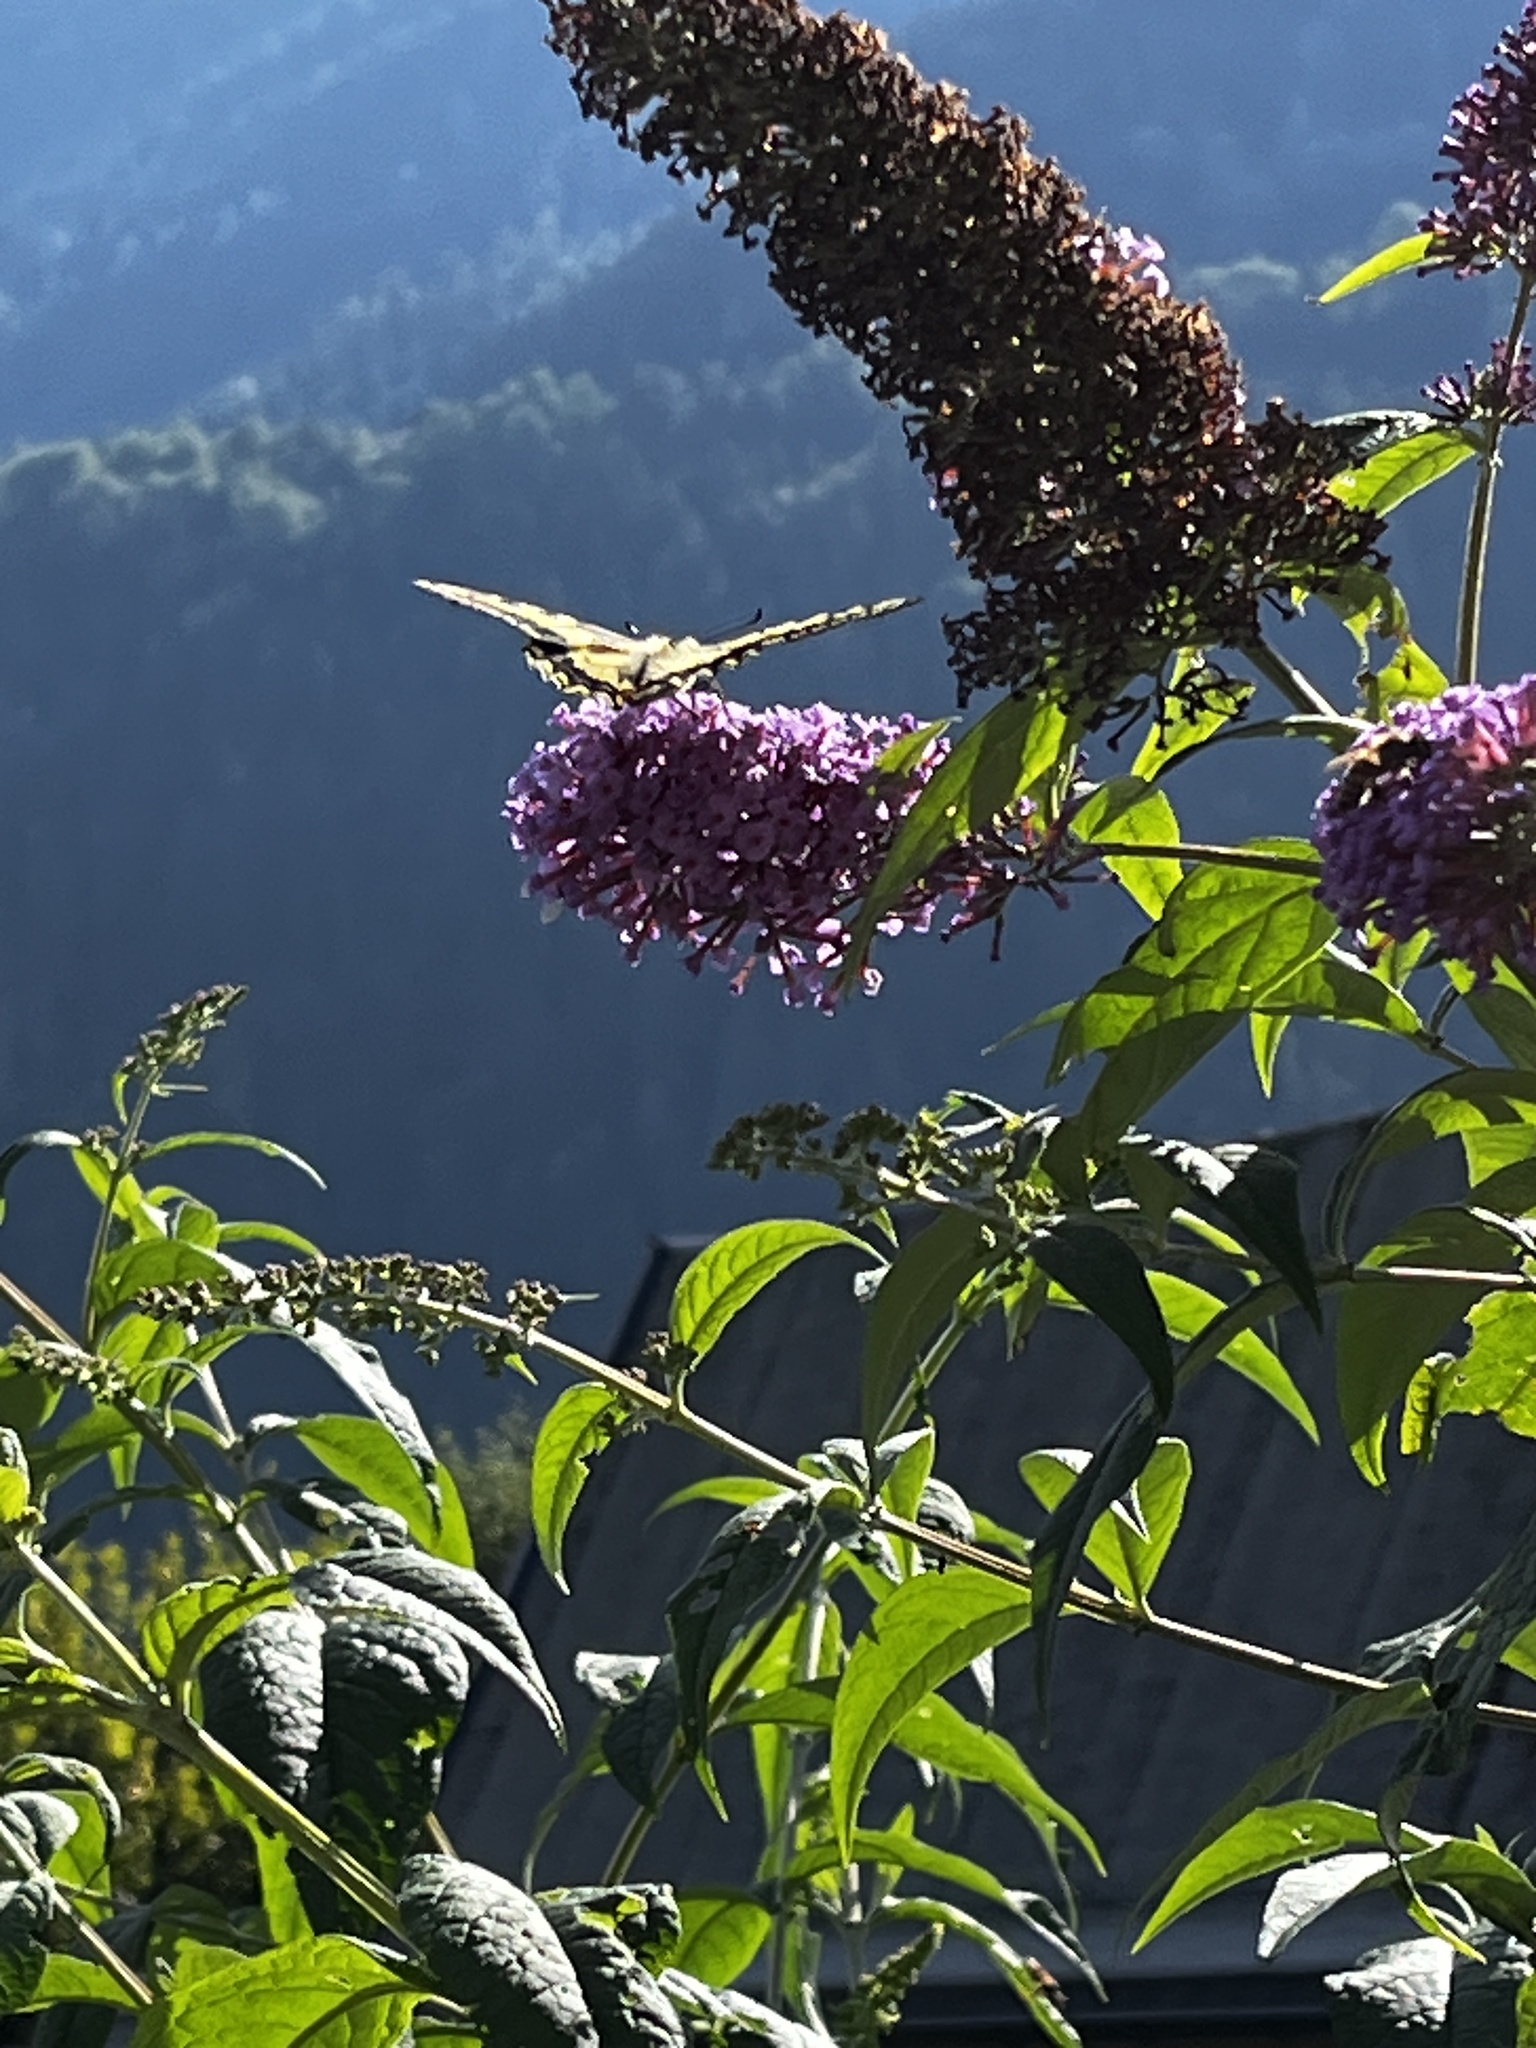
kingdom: Animalia
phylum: Arthropoda
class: Insecta
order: Lepidoptera
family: Papilionidae
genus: Papilio
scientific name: Papilio machaon
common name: Swallowtail
